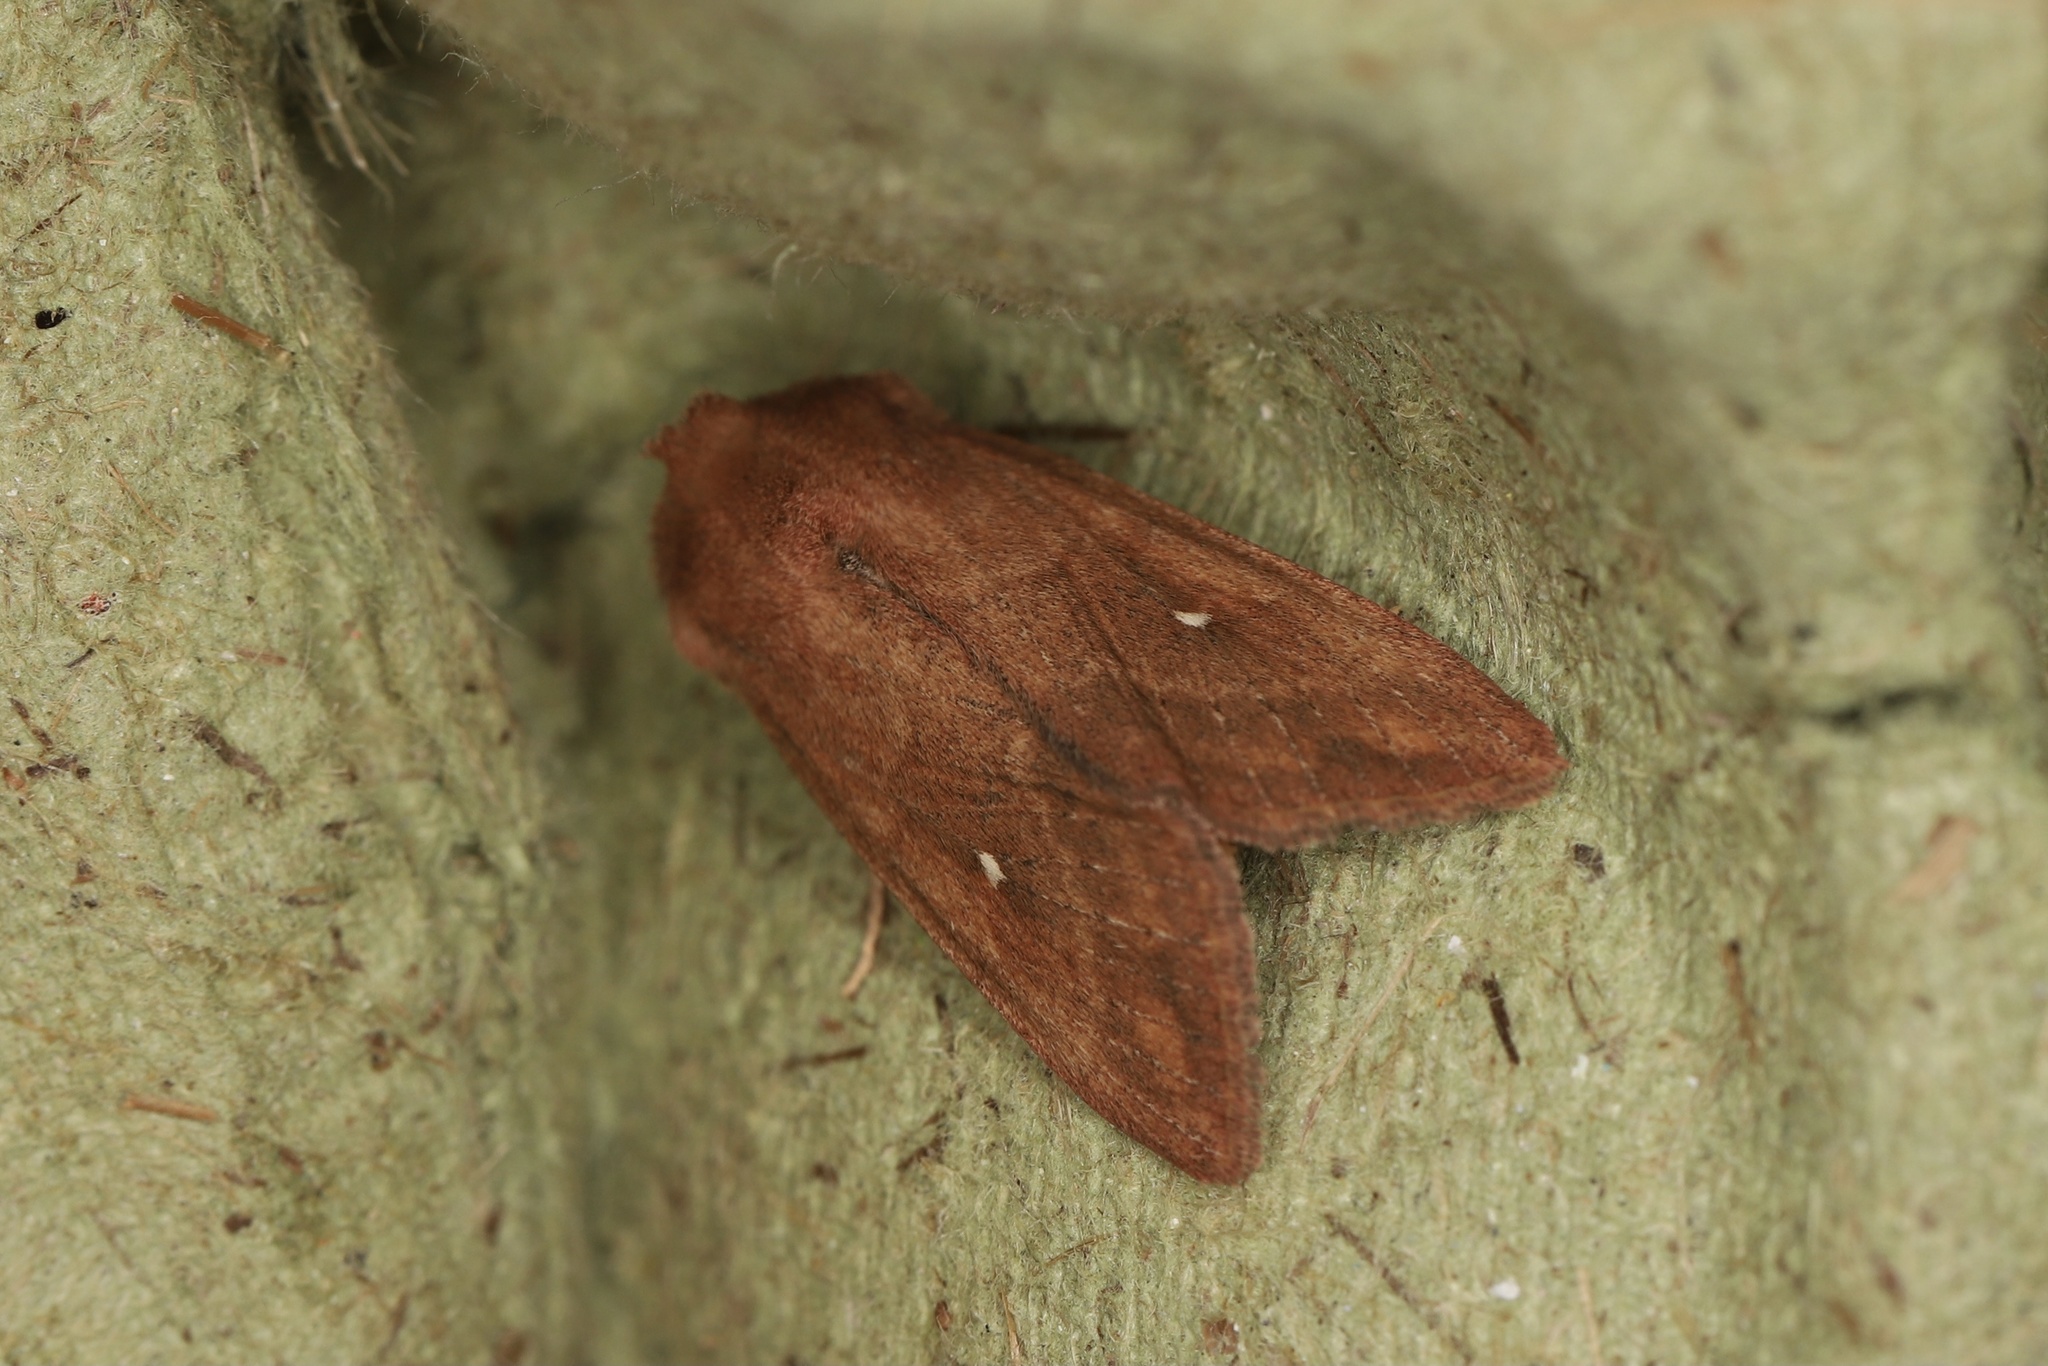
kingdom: Animalia
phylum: Arthropoda
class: Insecta
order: Lepidoptera
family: Noctuidae
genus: Mythimna
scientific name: Mythimna albipuncta
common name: White-point
